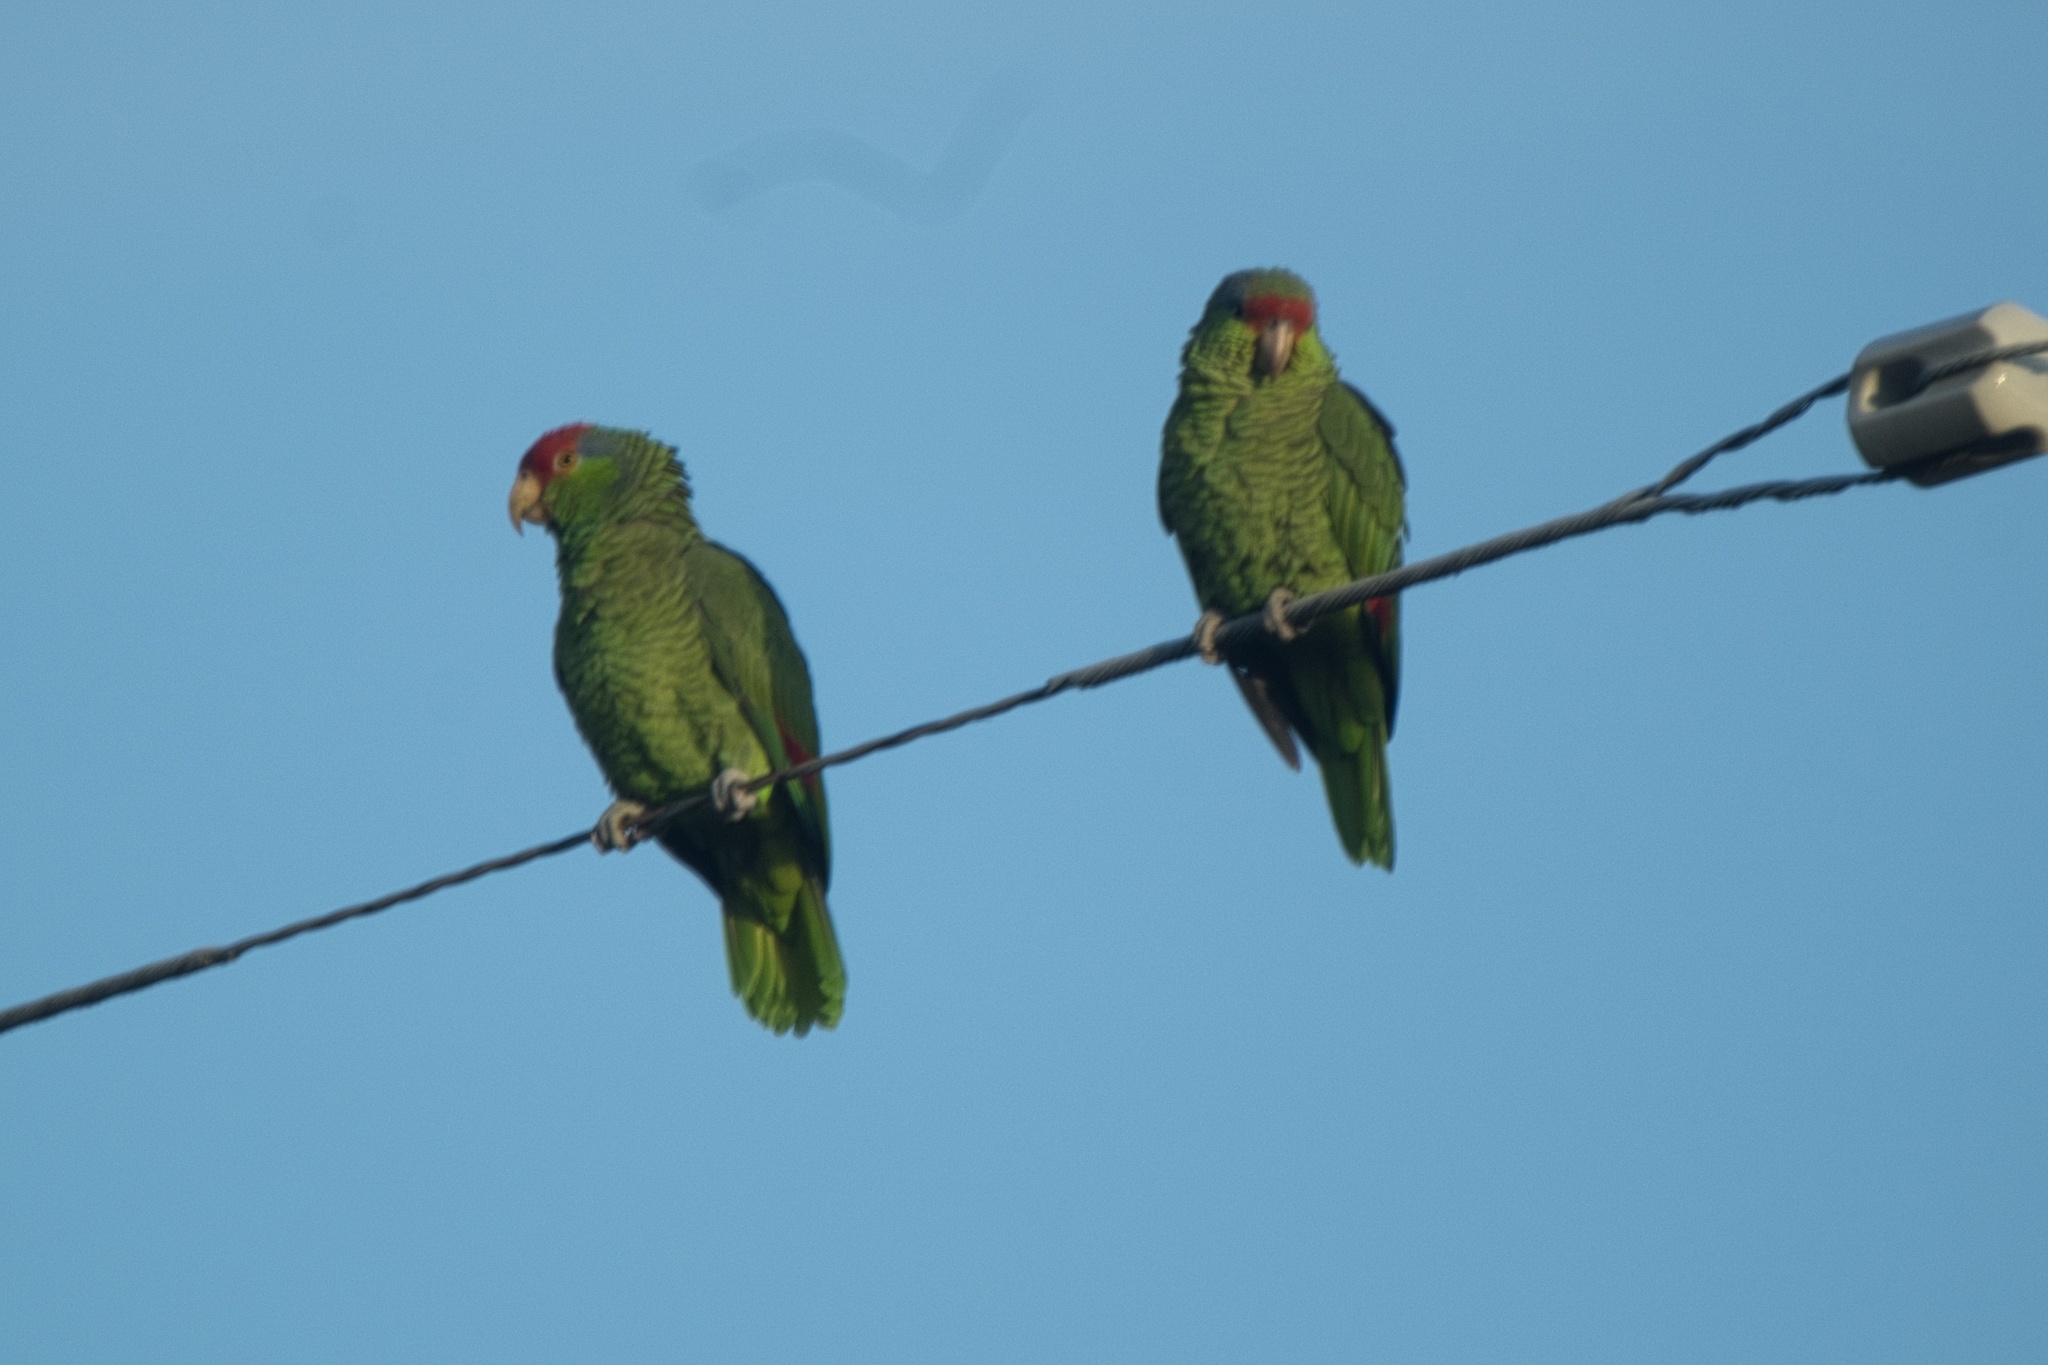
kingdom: Animalia
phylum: Chordata
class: Aves
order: Psittaciformes
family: Psittacidae
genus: Amazona
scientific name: Amazona viridigenalis
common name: Red-crowned amazon
